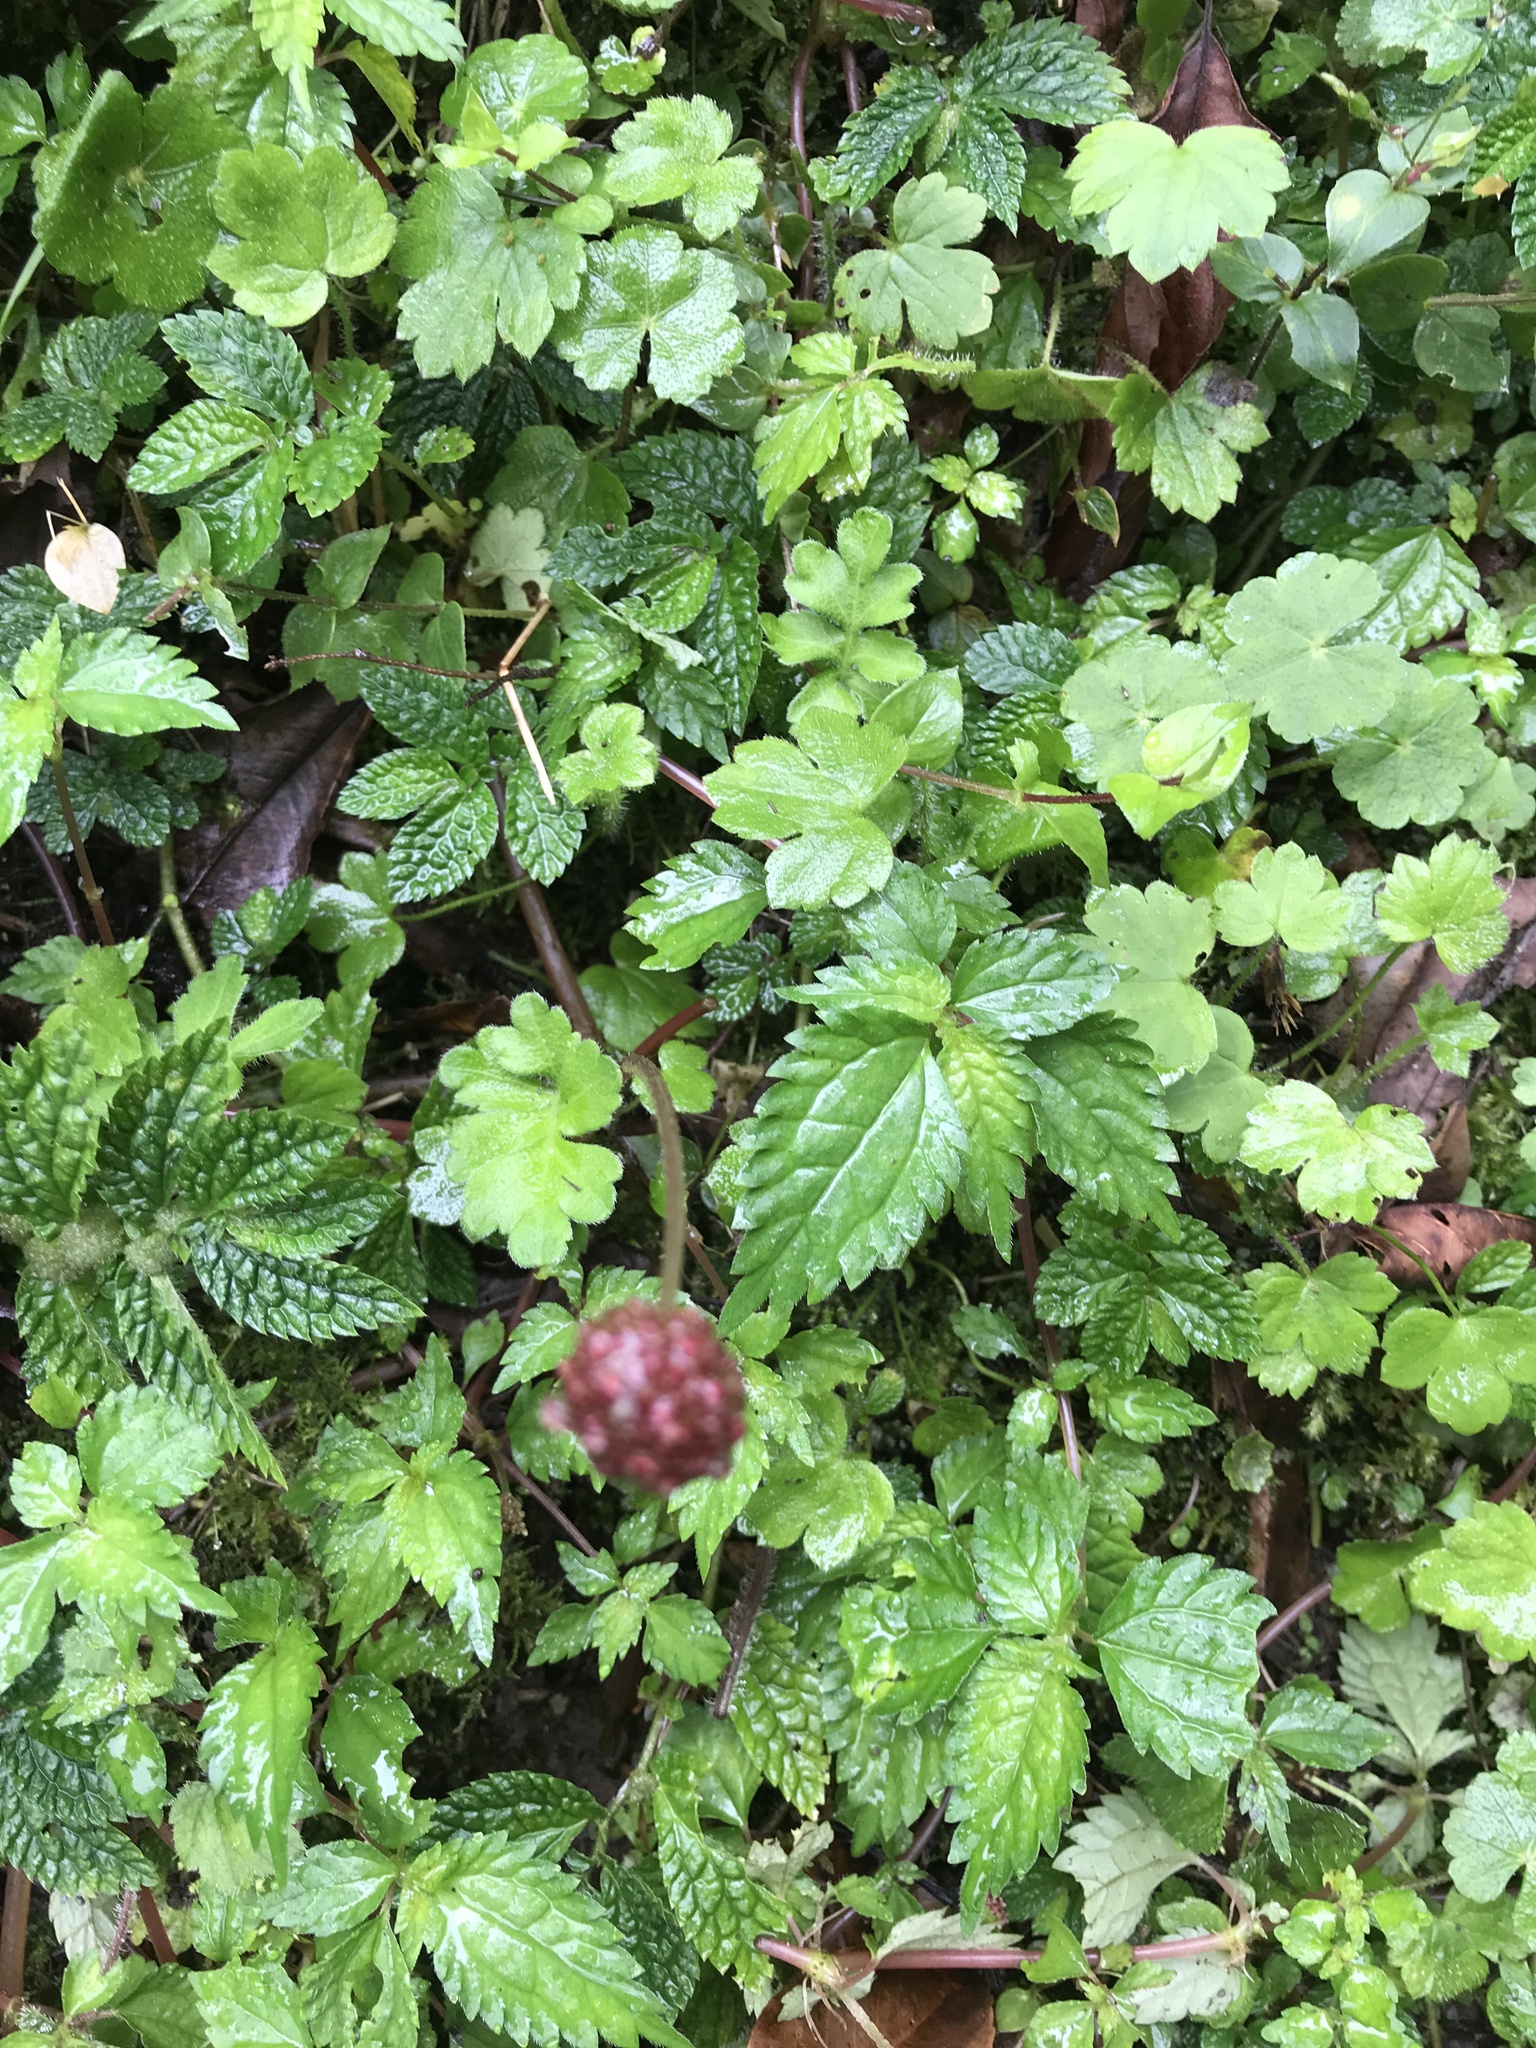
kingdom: Plantae
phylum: Tracheophyta
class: Magnoliopsida
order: Rosales
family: Urticaceae
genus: Lecanthus
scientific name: Lecanthus peduncularis
